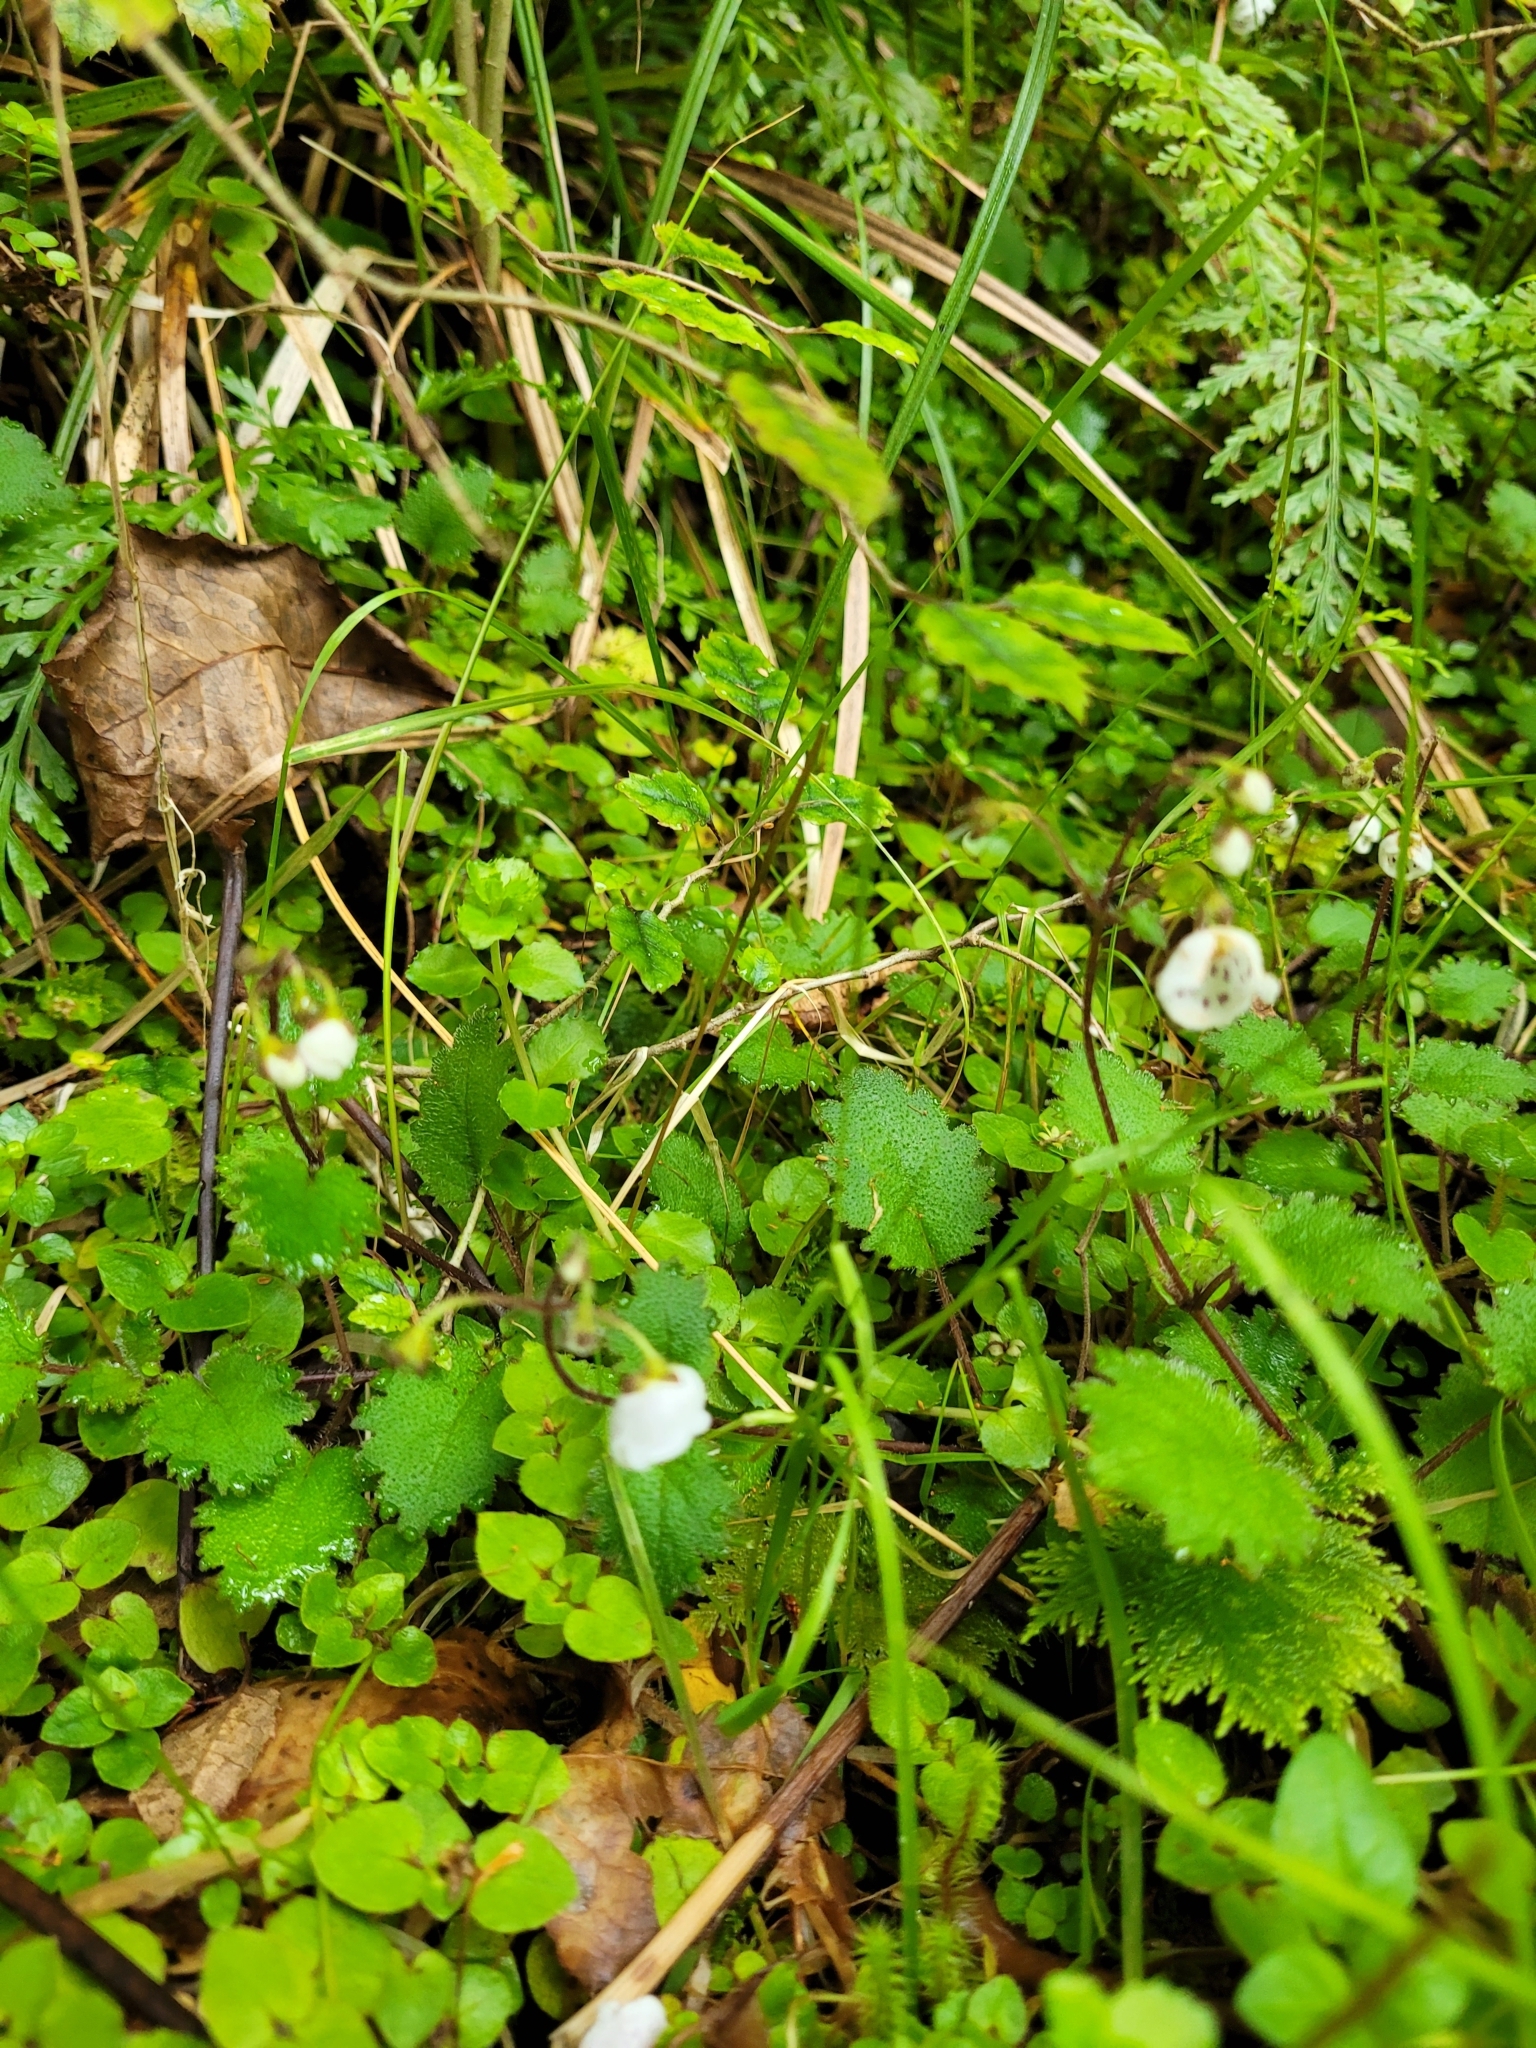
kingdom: Plantae
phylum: Tracheophyta
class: Magnoliopsida
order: Lamiales
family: Calceolariaceae
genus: Jovellana
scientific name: Jovellana repens
